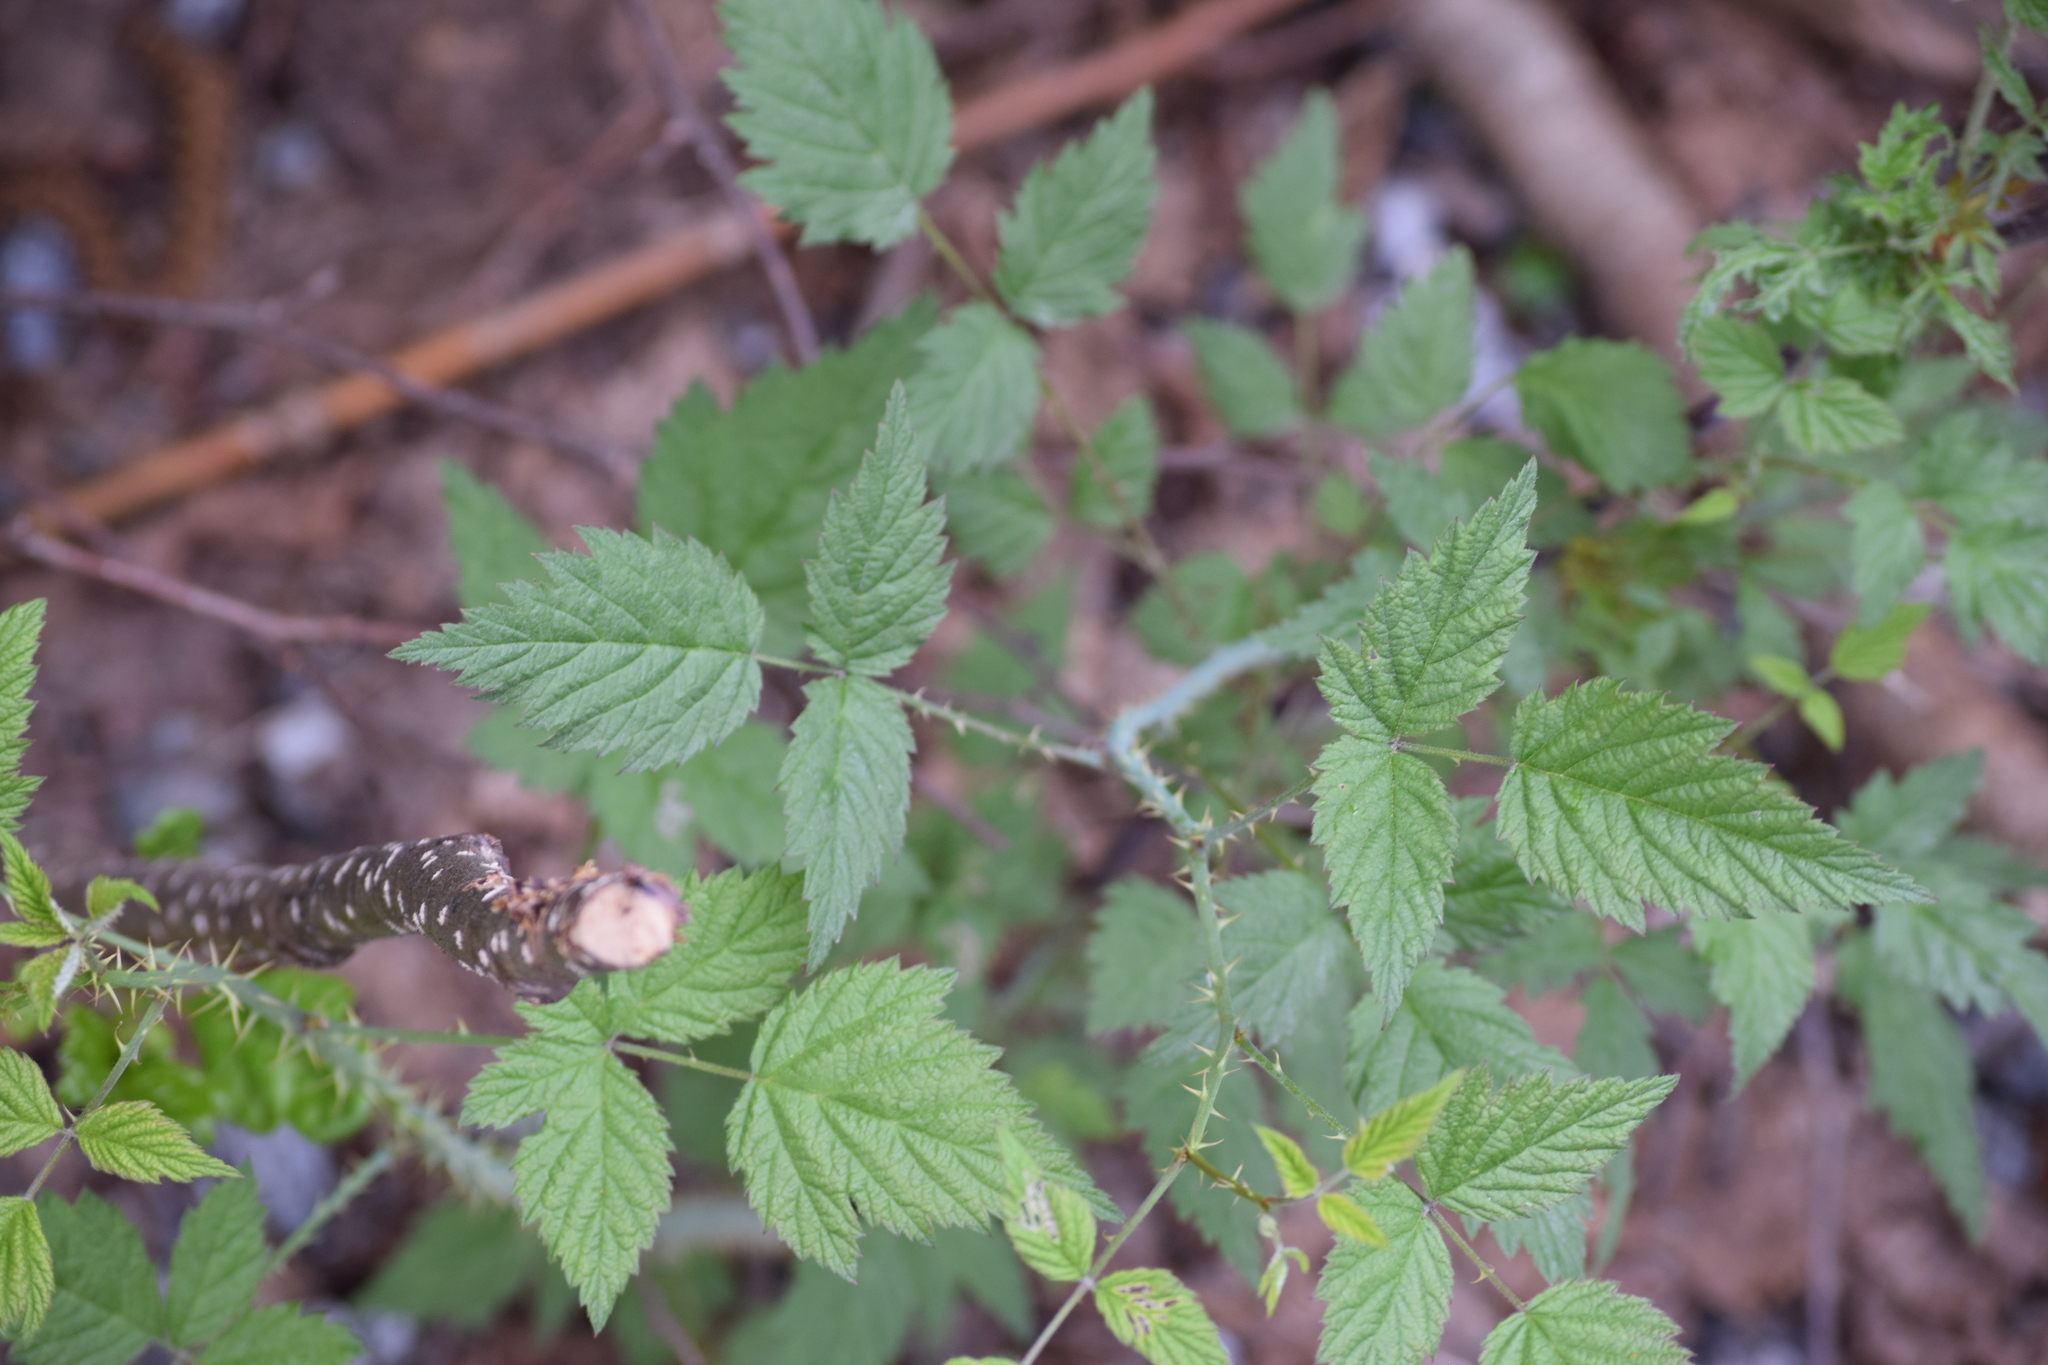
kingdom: Plantae
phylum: Tracheophyta
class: Magnoliopsida
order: Rosales
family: Rosaceae
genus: Rubus
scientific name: Rubus leucodermis
